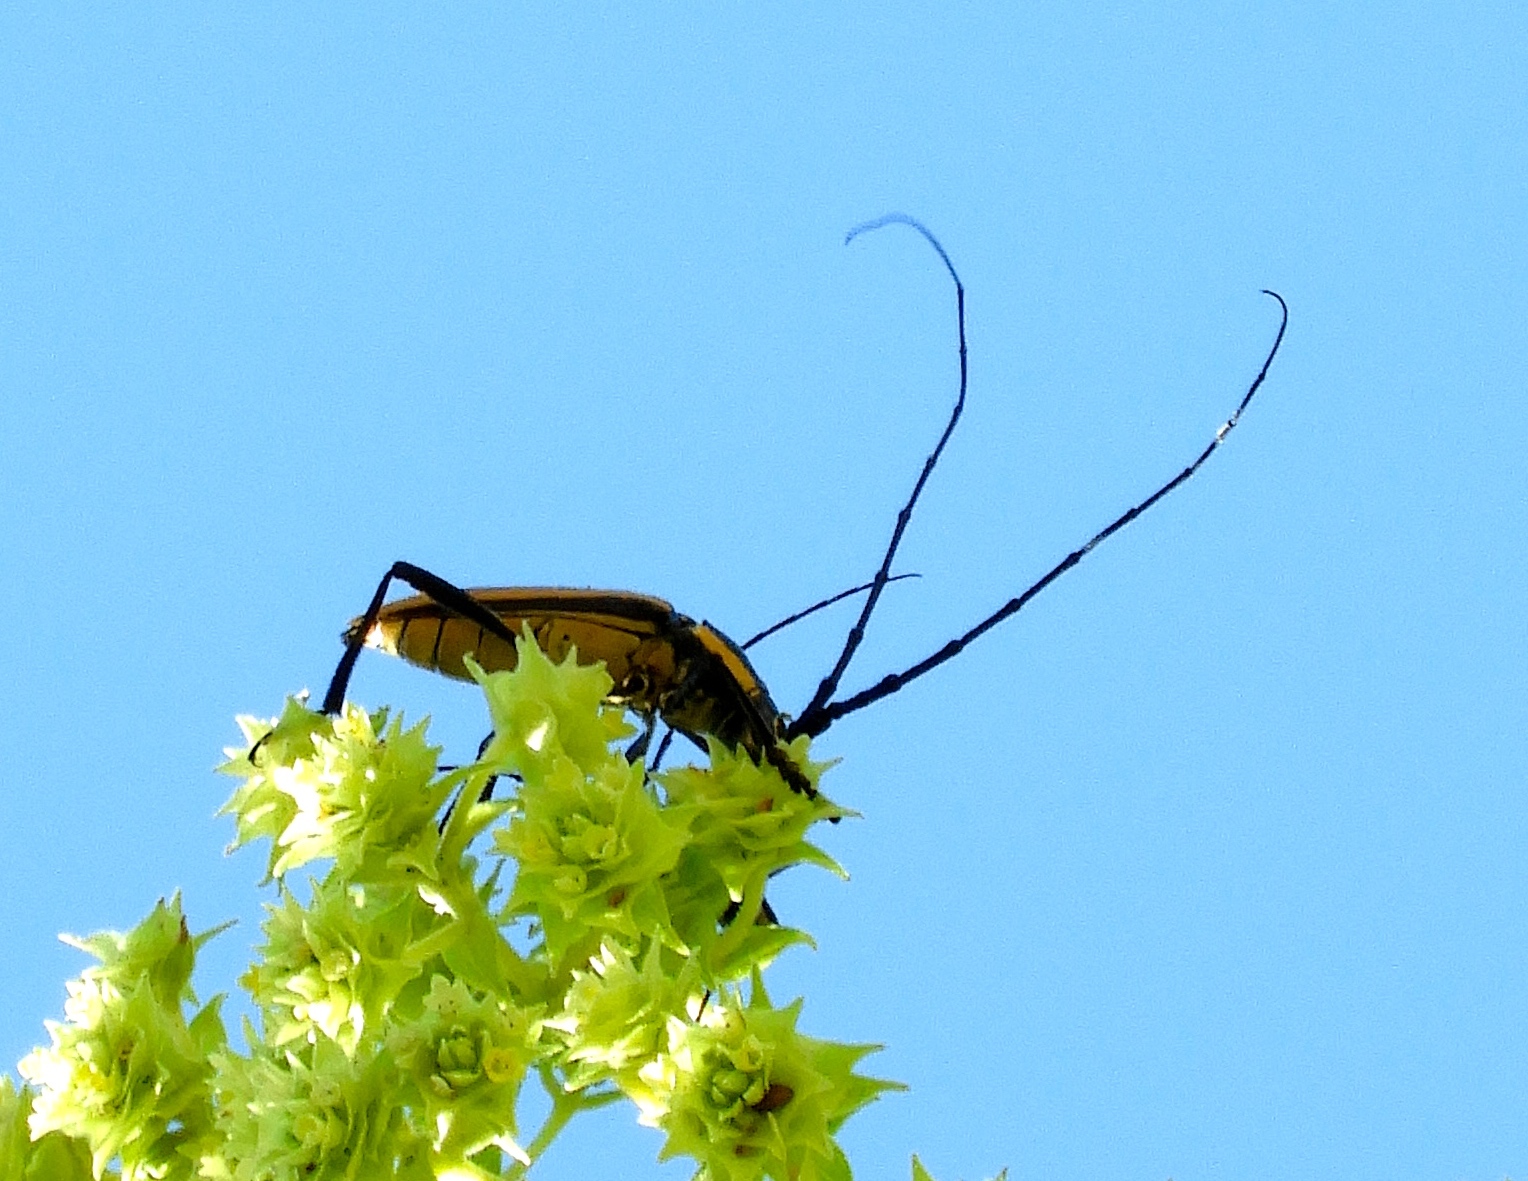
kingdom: Animalia
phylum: Arthropoda
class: Insecta
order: Coleoptera
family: Cerambycidae
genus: Sphaenothecus
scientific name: Sphaenothecus trilineatus
